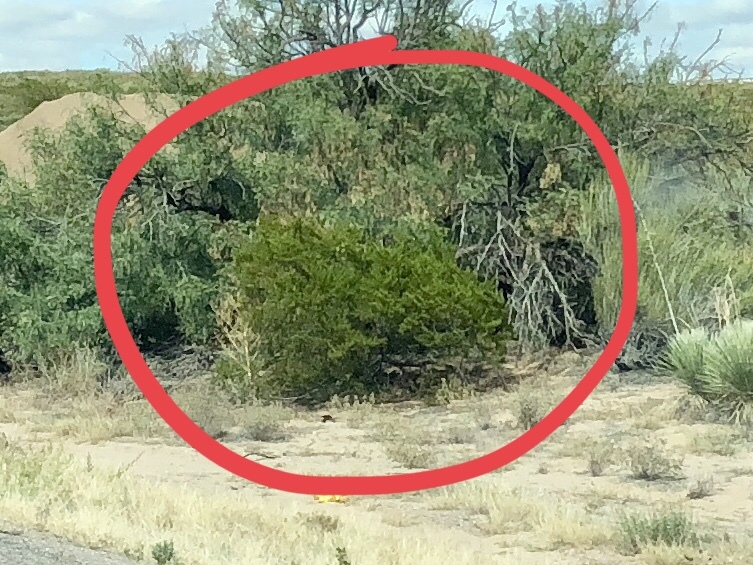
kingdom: Plantae
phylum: Tracheophyta
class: Magnoliopsida
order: Zygophyllales
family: Zygophyllaceae
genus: Larrea
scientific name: Larrea tridentata
